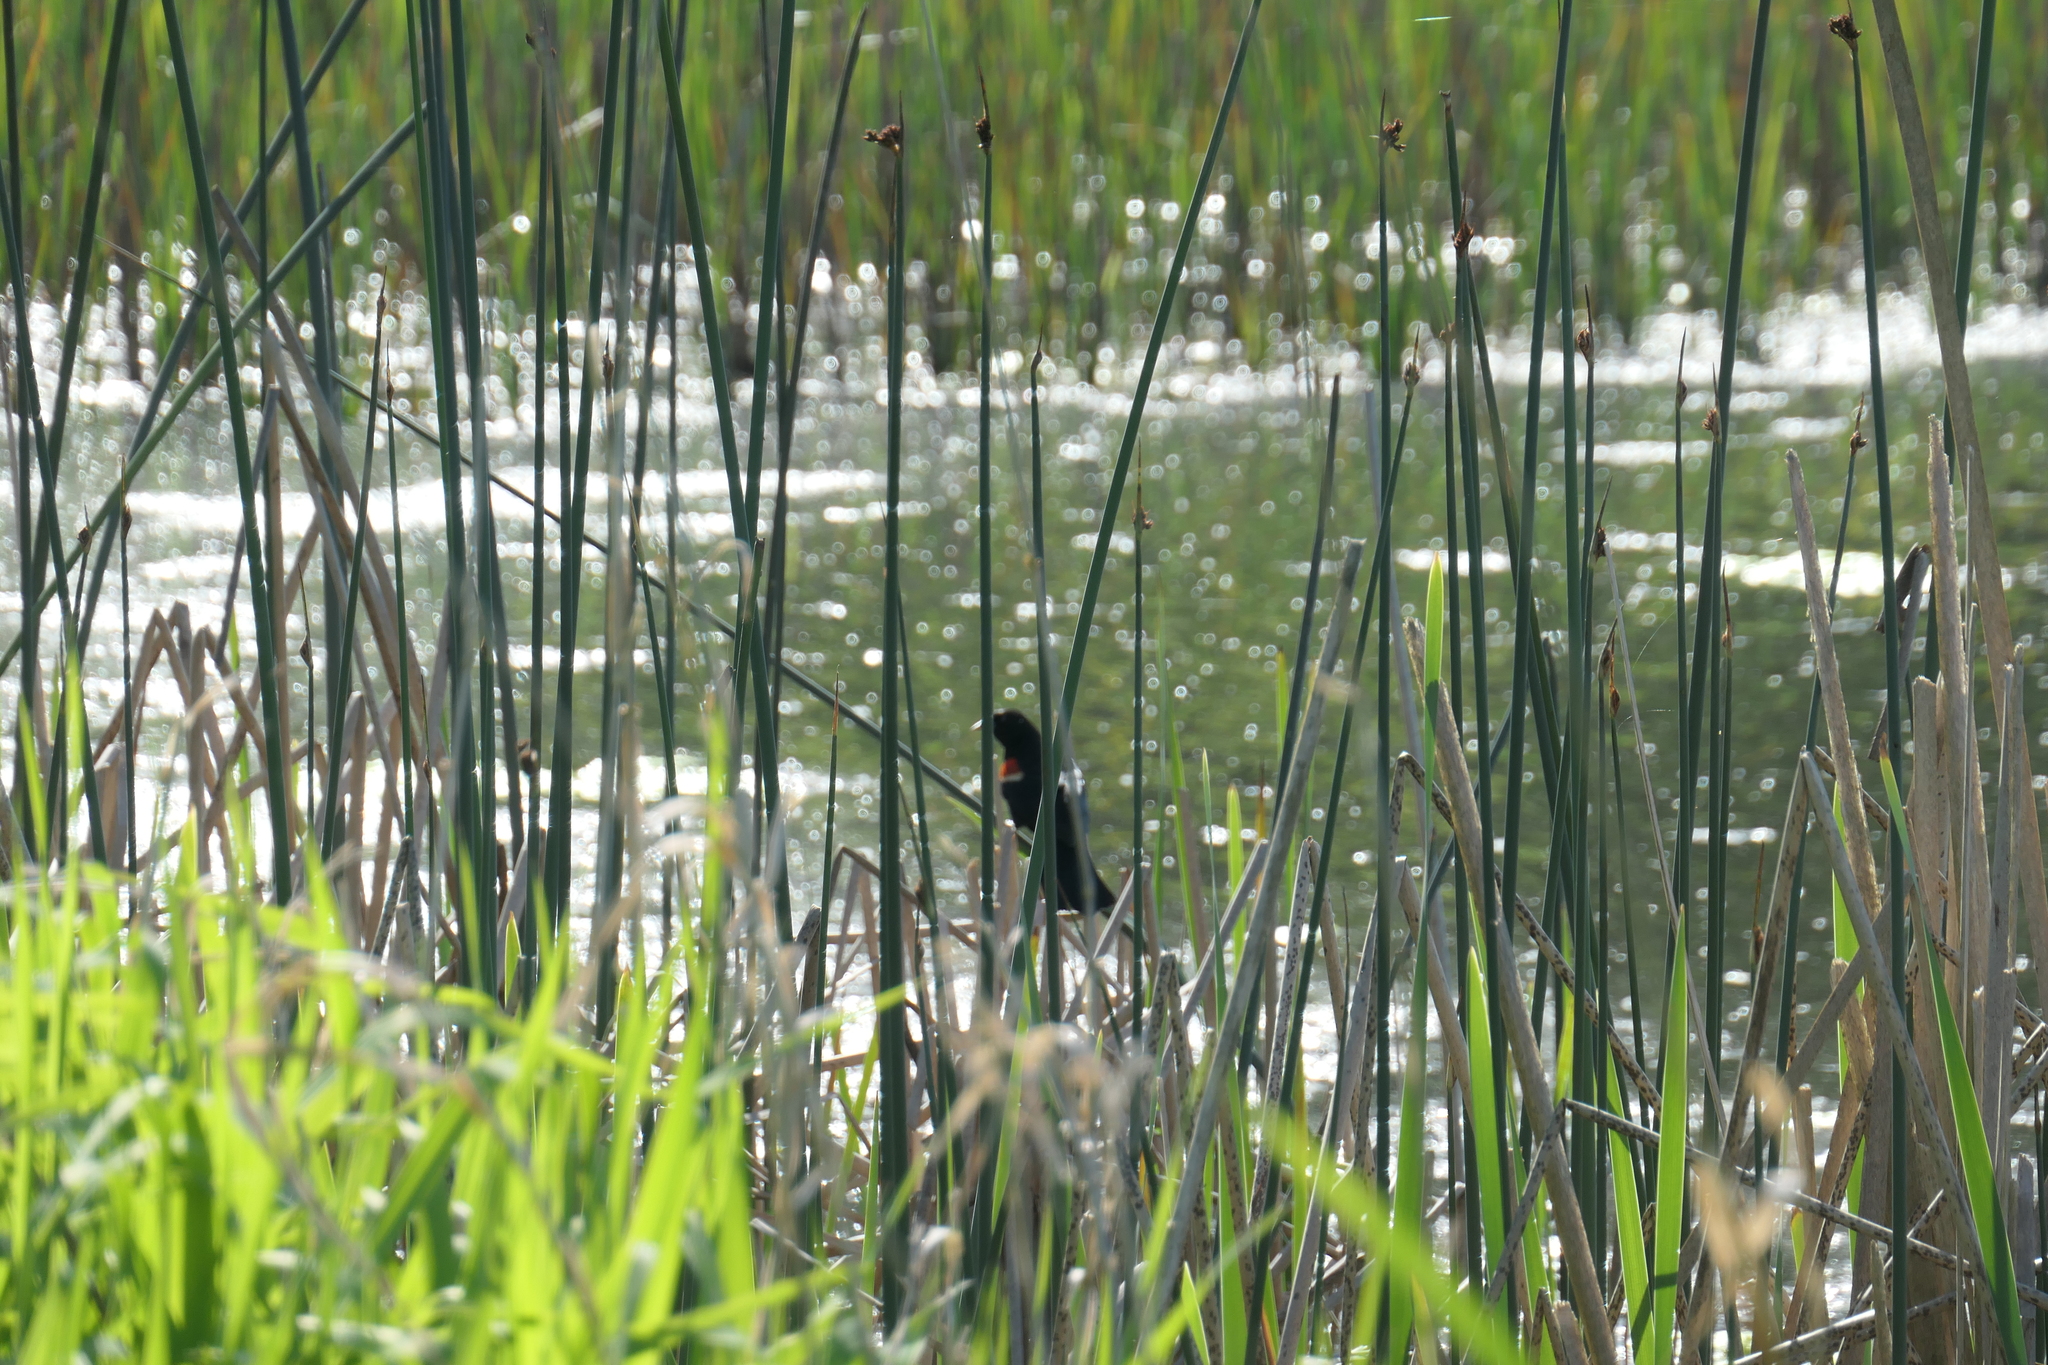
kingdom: Animalia
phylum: Chordata
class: Aves
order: Passeriformes
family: Icteridae
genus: Agelaius
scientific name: Agelaius phoeniceus
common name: Red-winged blackbird
